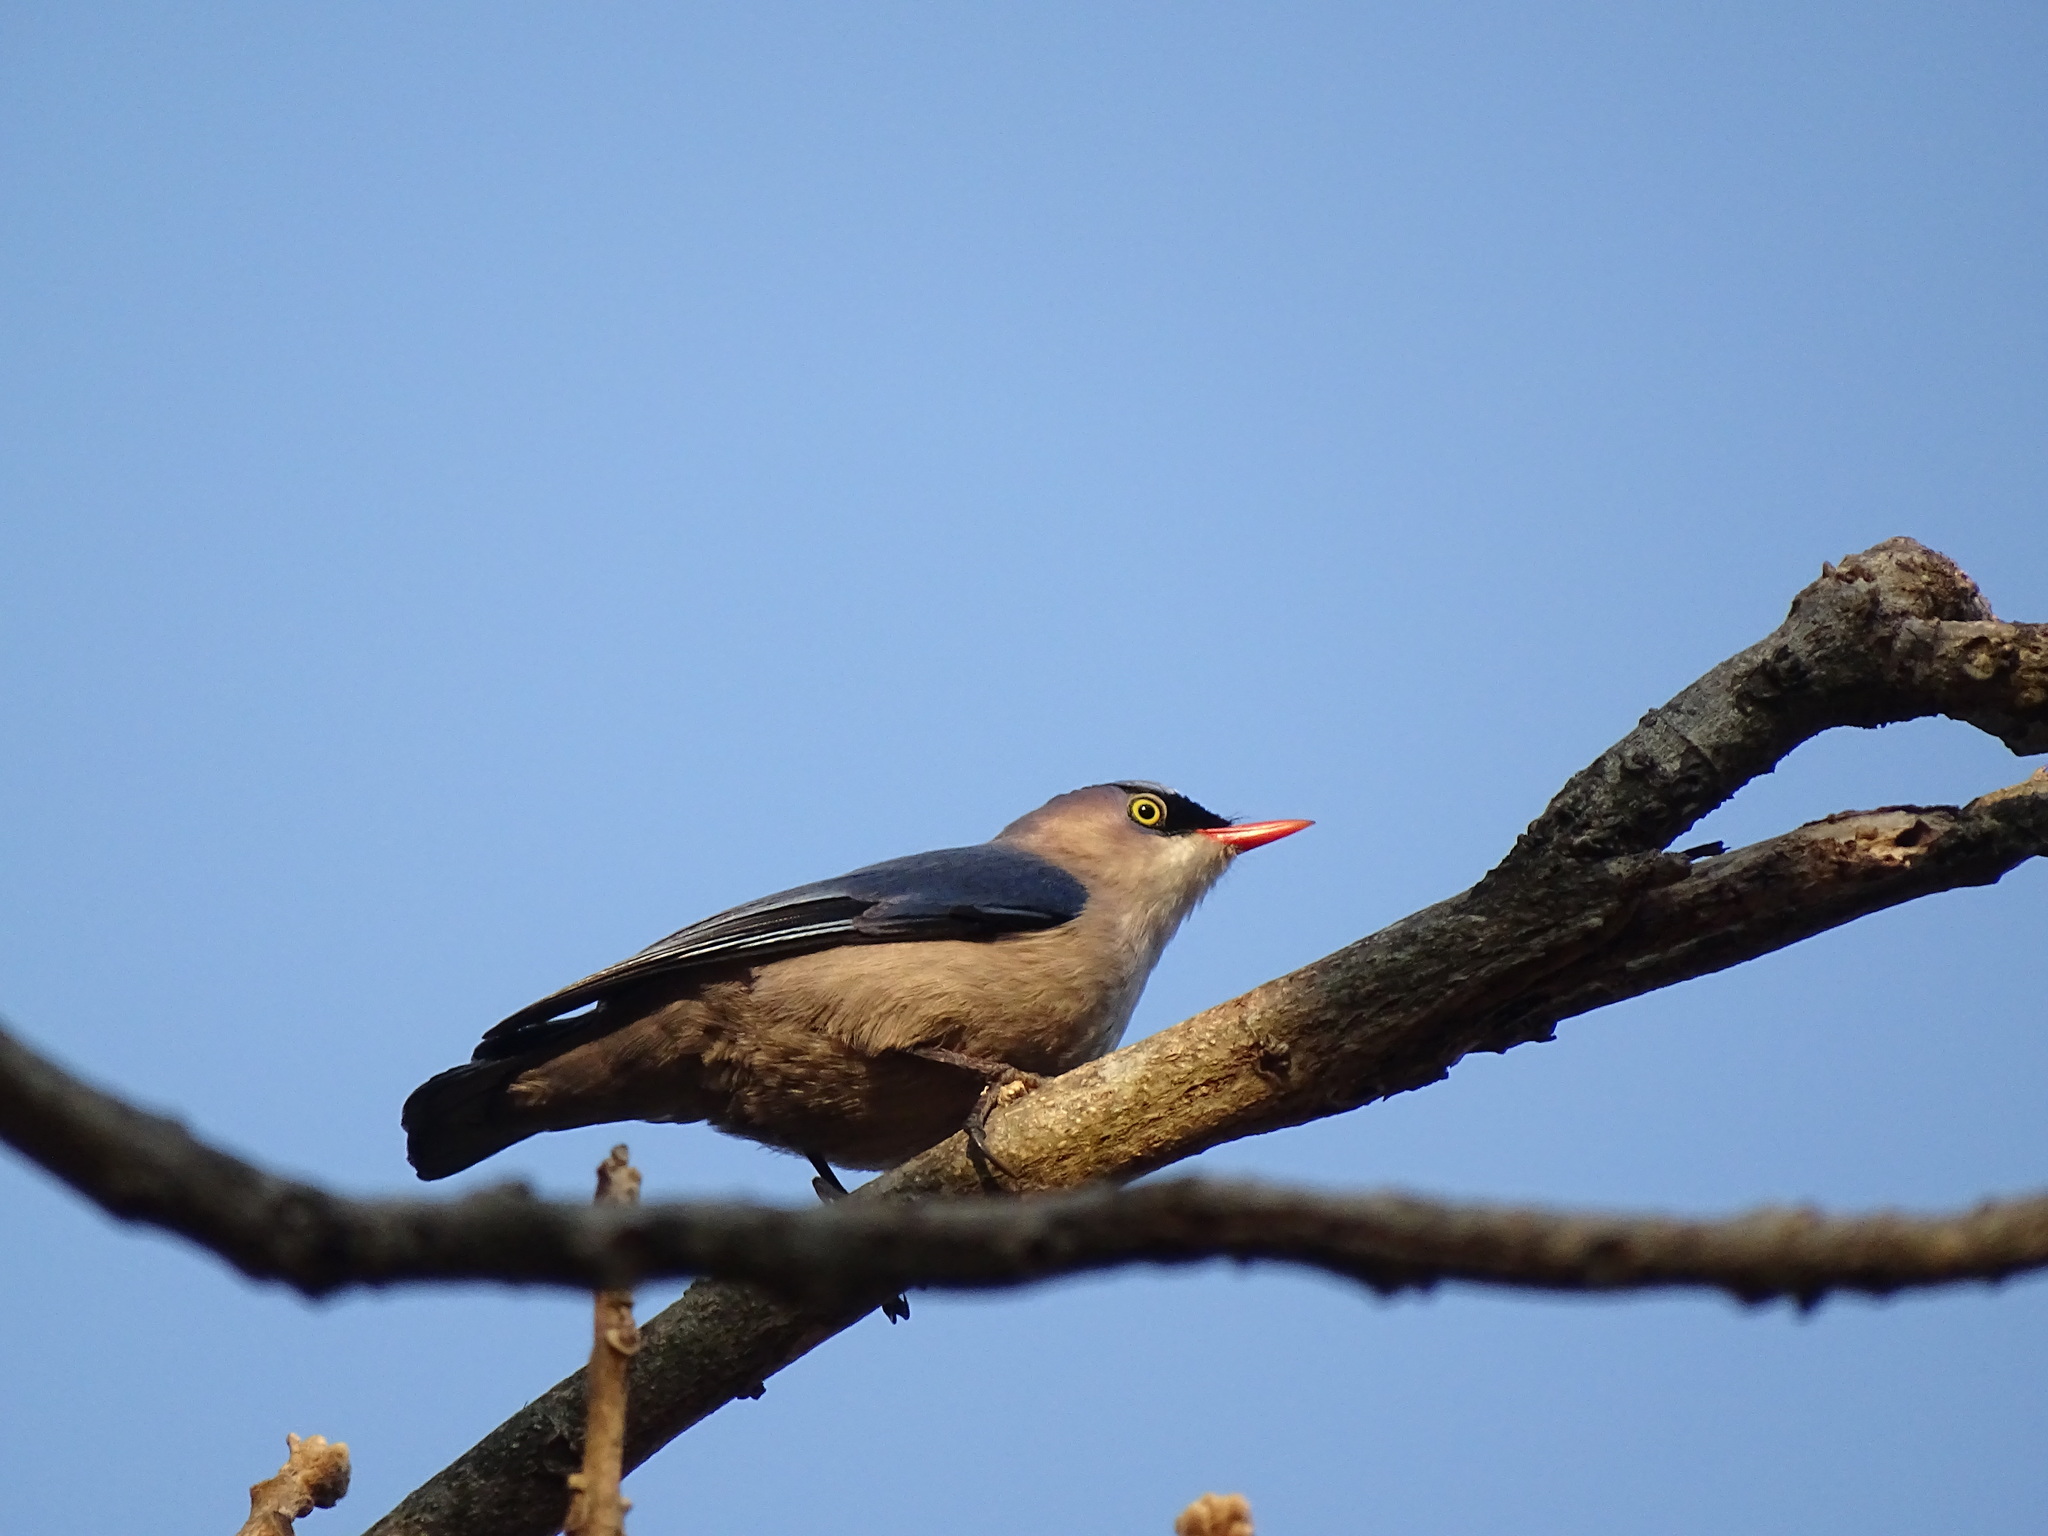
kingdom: Animalia
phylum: Chordata
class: Aves
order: Passeriformes
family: Sittidae
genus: Sitta
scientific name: Sitta frontalis
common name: Velvet-fronted nuthatch
